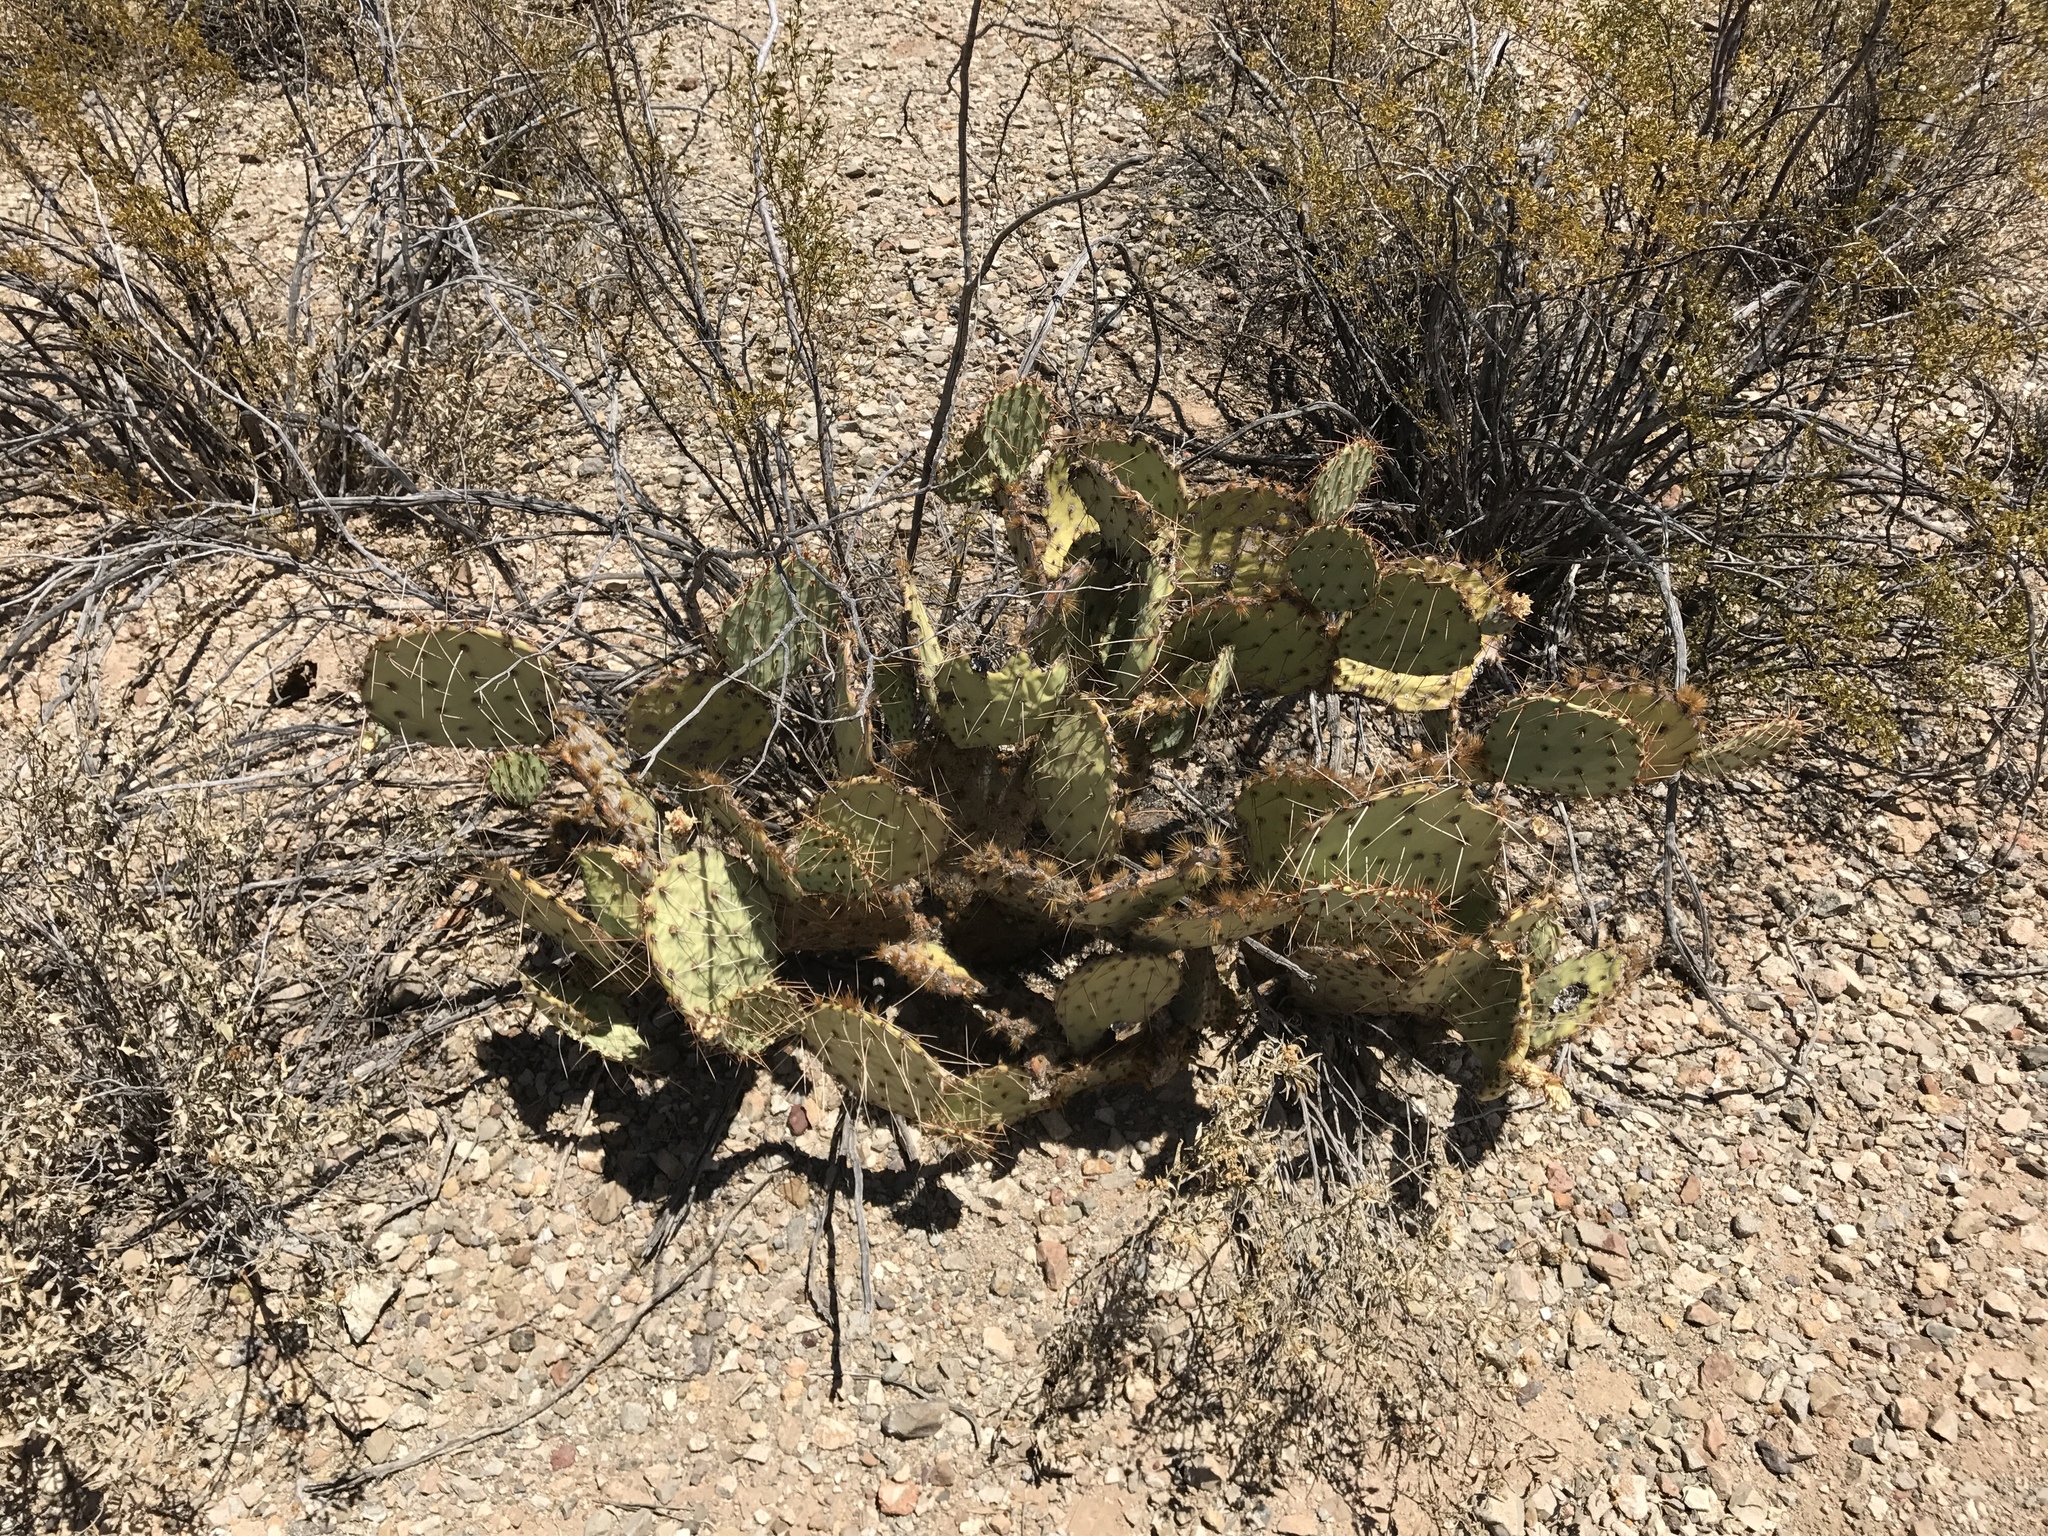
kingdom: Plantae
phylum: Tracheophyta
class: Magnoliopsida
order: Caryophyllales
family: Cactaceae
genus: Opuntia
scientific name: Opuntia engelmannii
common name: Cactus-apple
